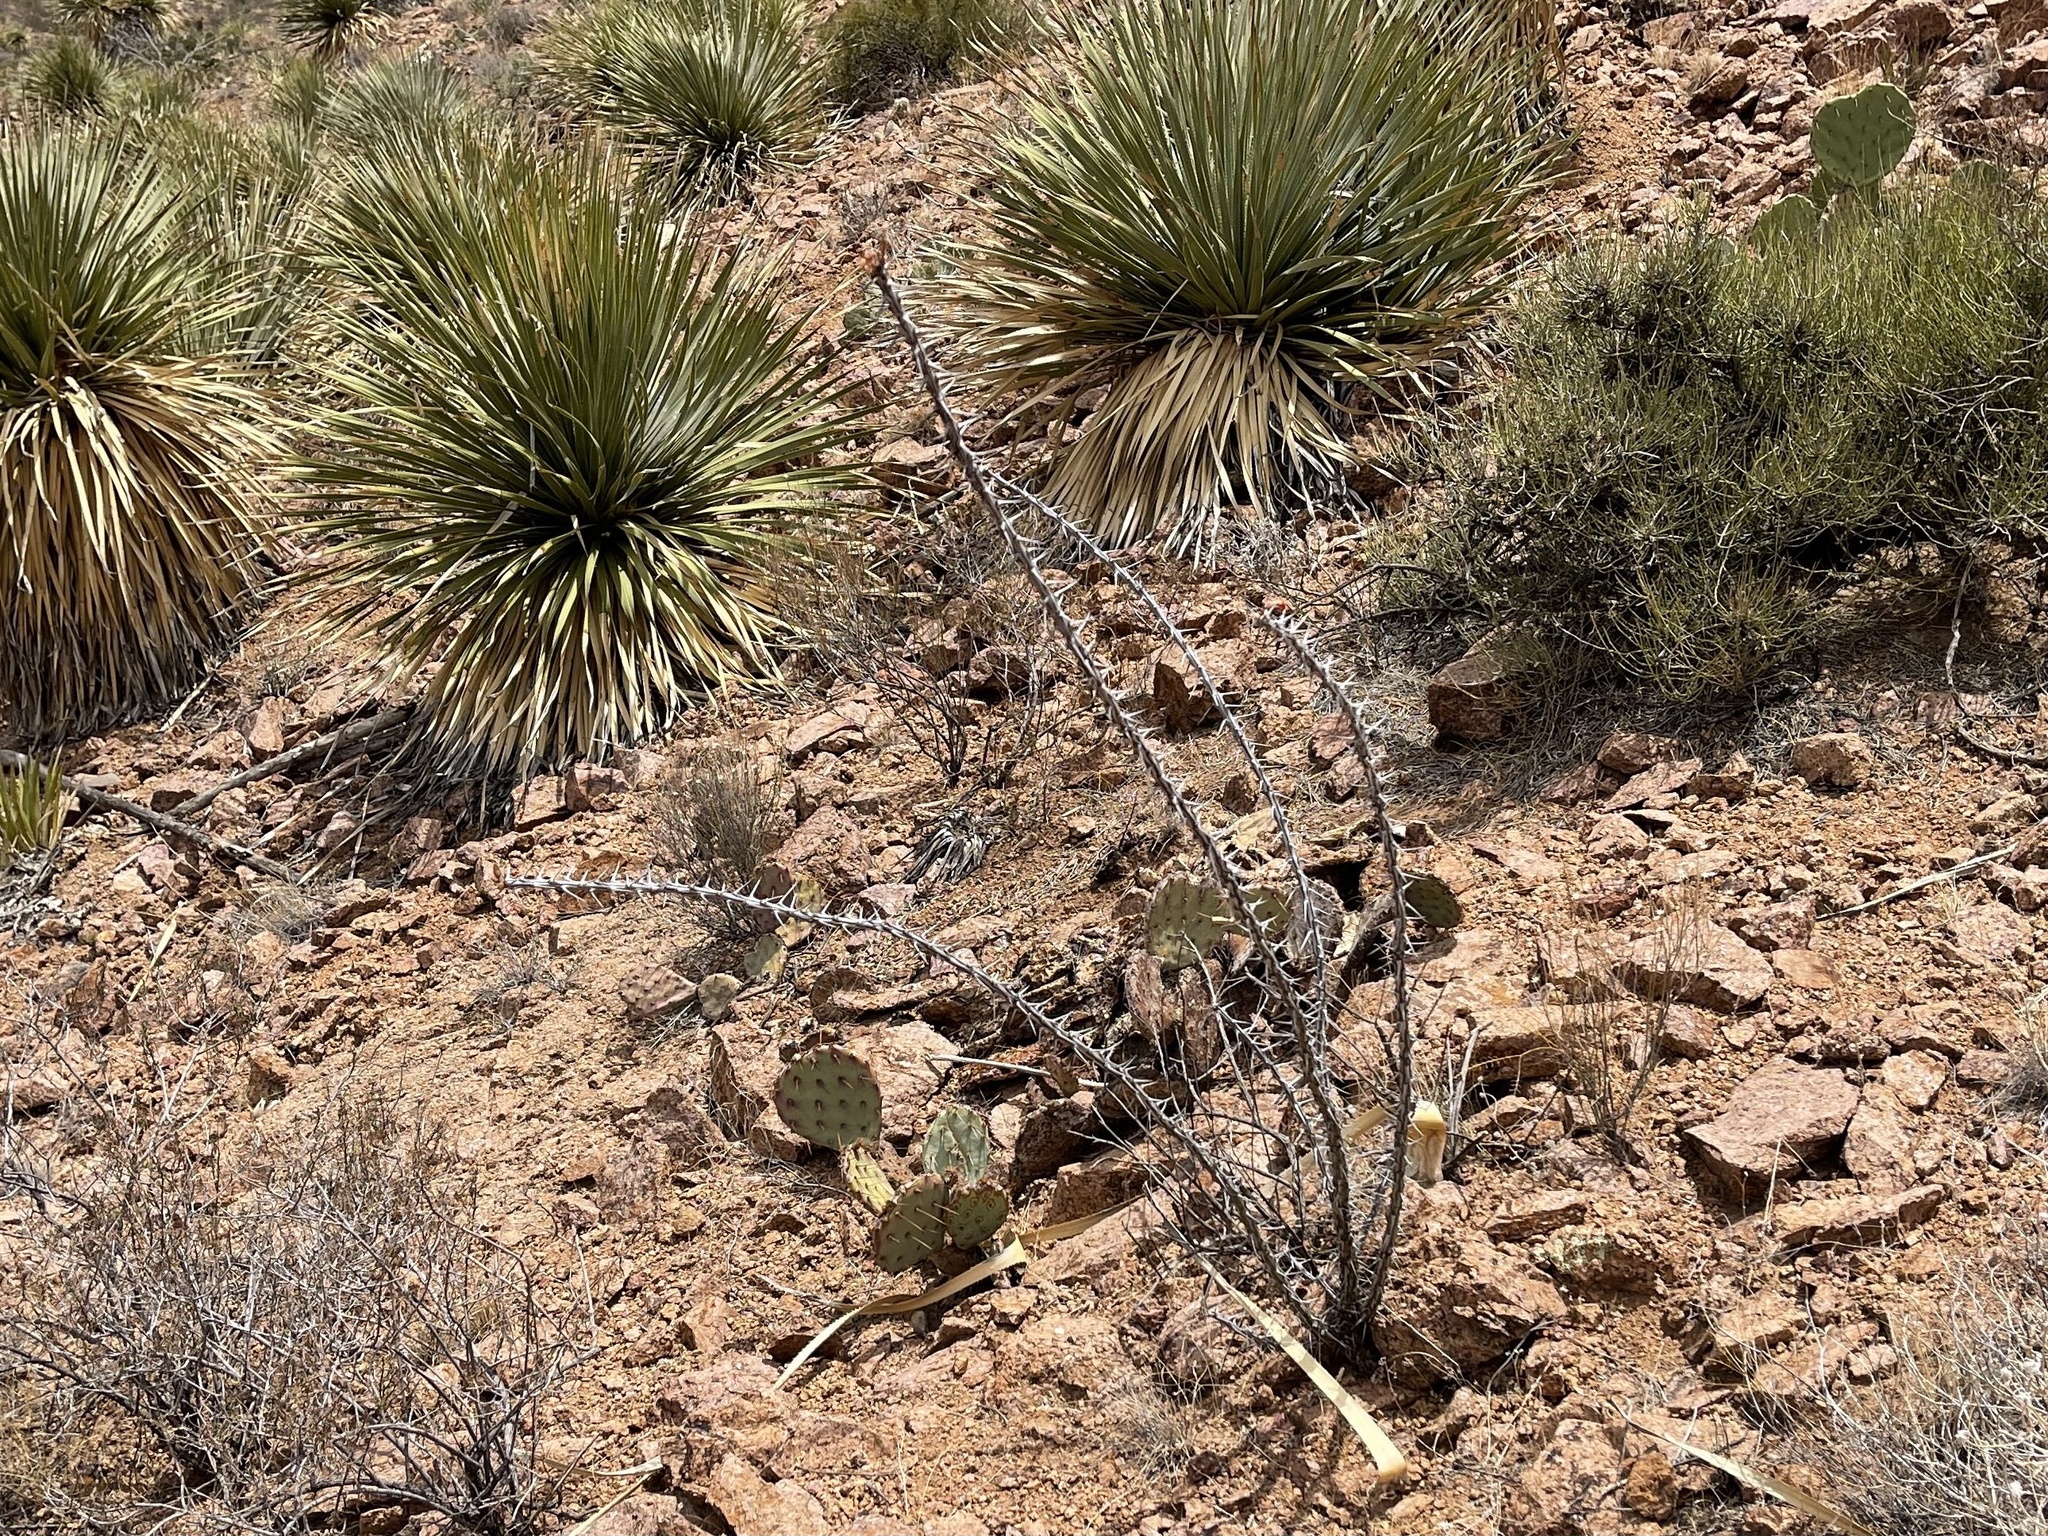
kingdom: Plantae
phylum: Tracheophyta
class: Magnoliopsida
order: Ericales
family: Fouquieriaceae
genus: Fouquieria
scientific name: Fouquieria splendens
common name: Vine-cactus
